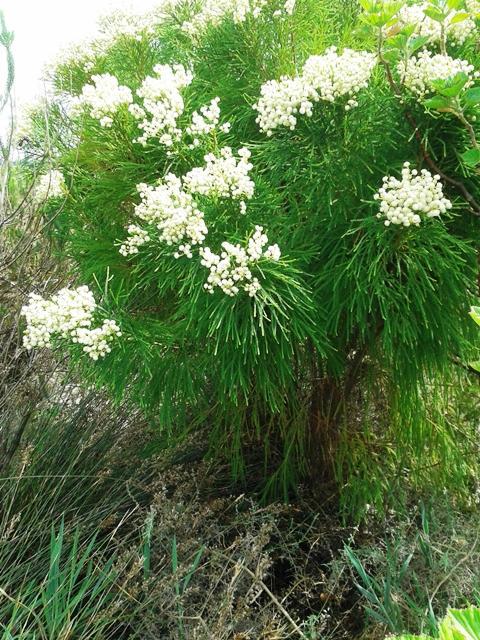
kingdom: Plantae
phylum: Tracheophyta
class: Magnoliopsida
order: Bruniales
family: Bruniaceae
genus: Berzelia
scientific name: Berzelia lanuginosa
